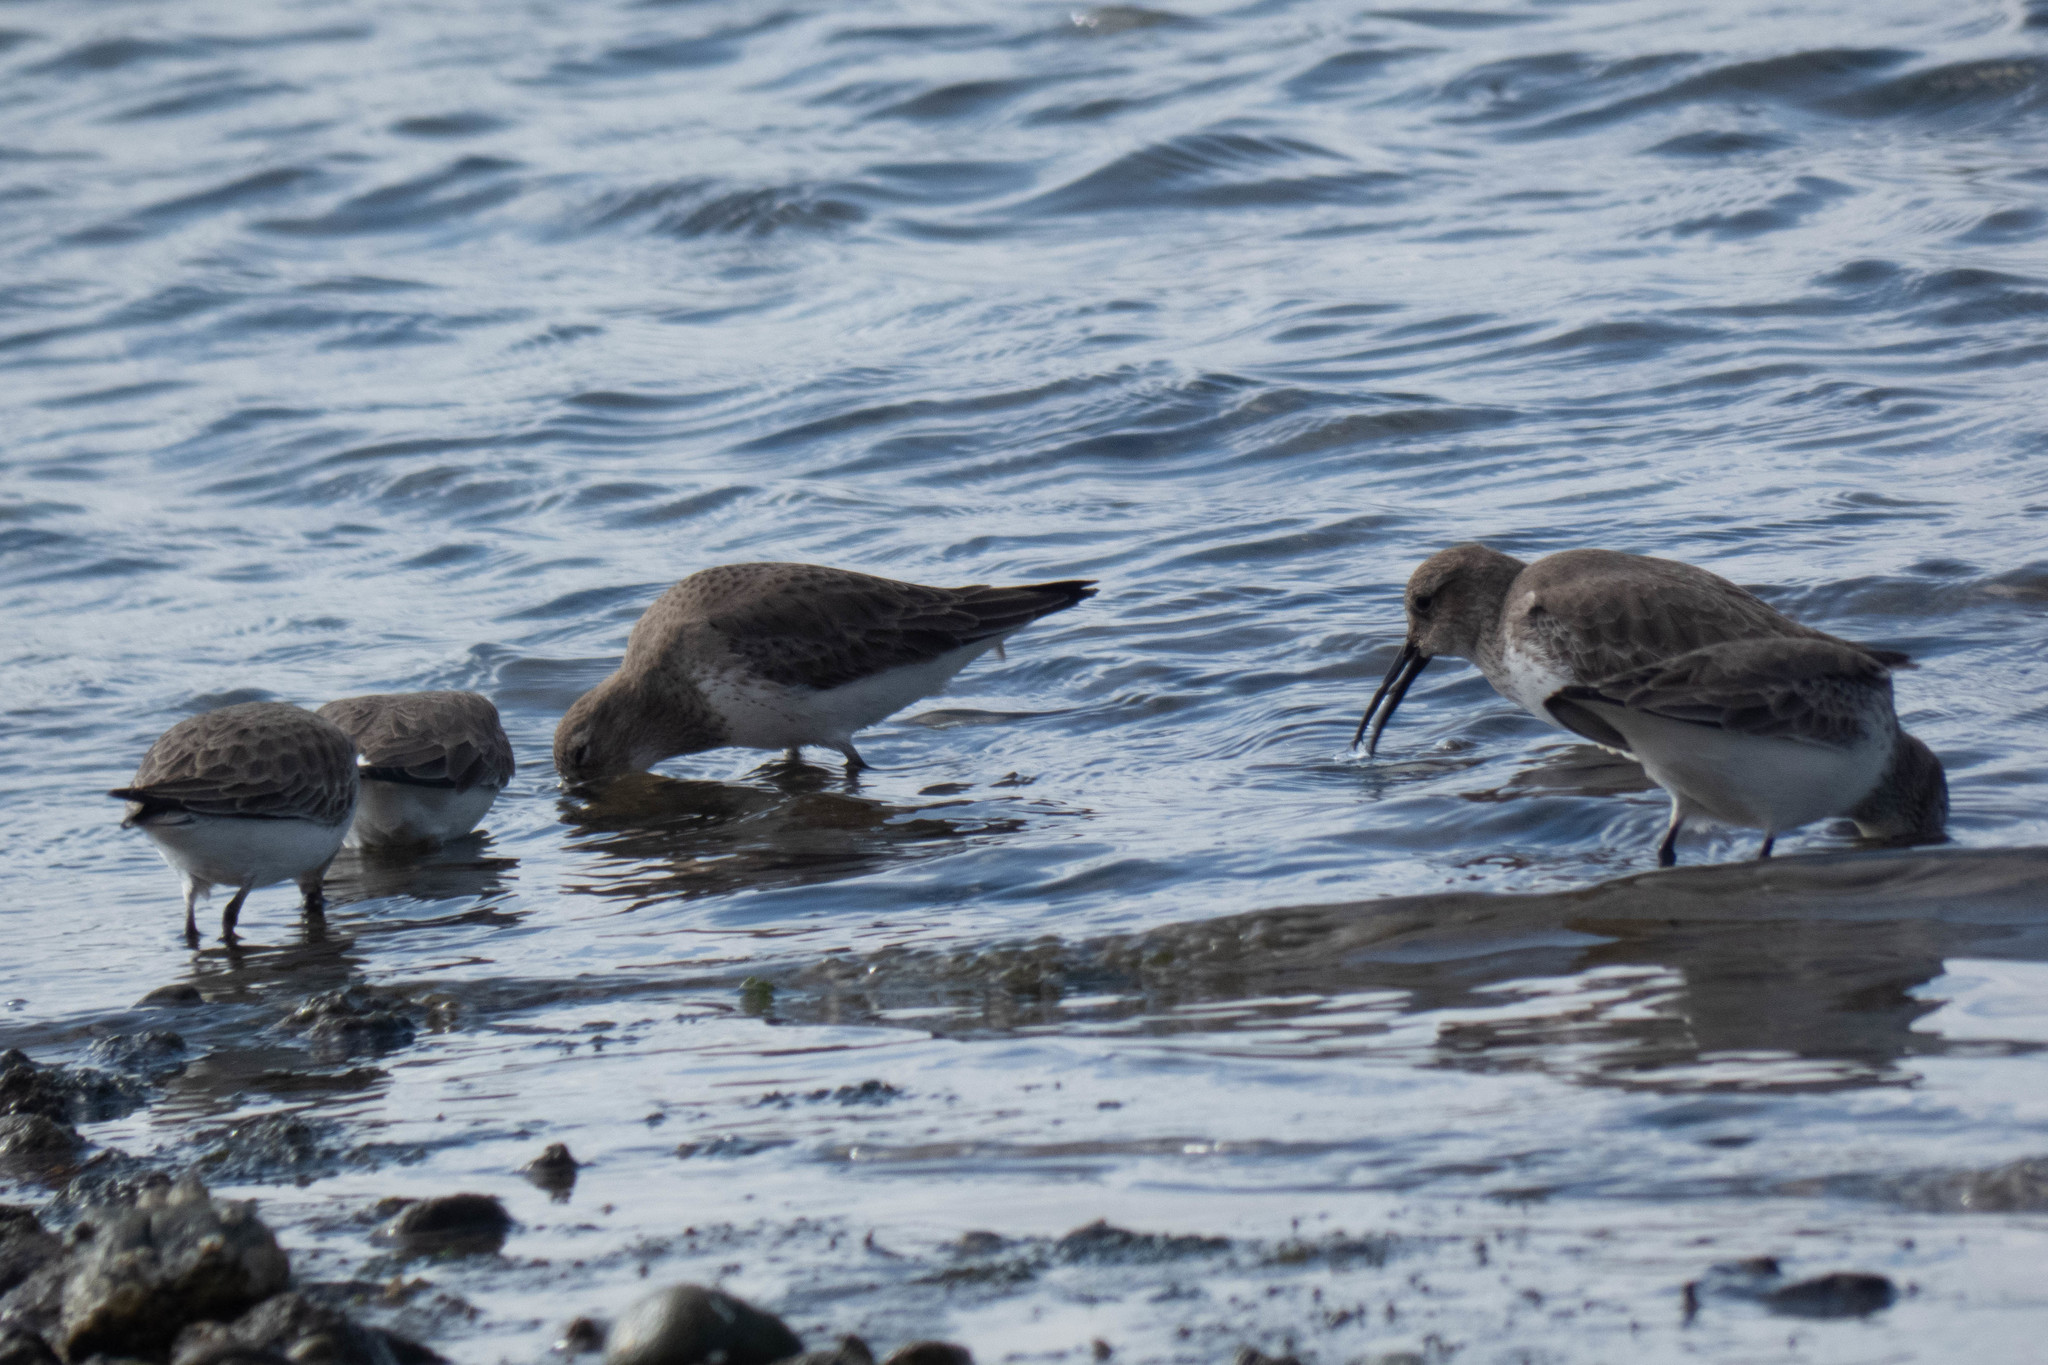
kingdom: Animalia
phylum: Chordata
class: Aves
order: Charadriiformes
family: Scolopacidae
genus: Calidris
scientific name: Calidris alpina
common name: Dunlin
